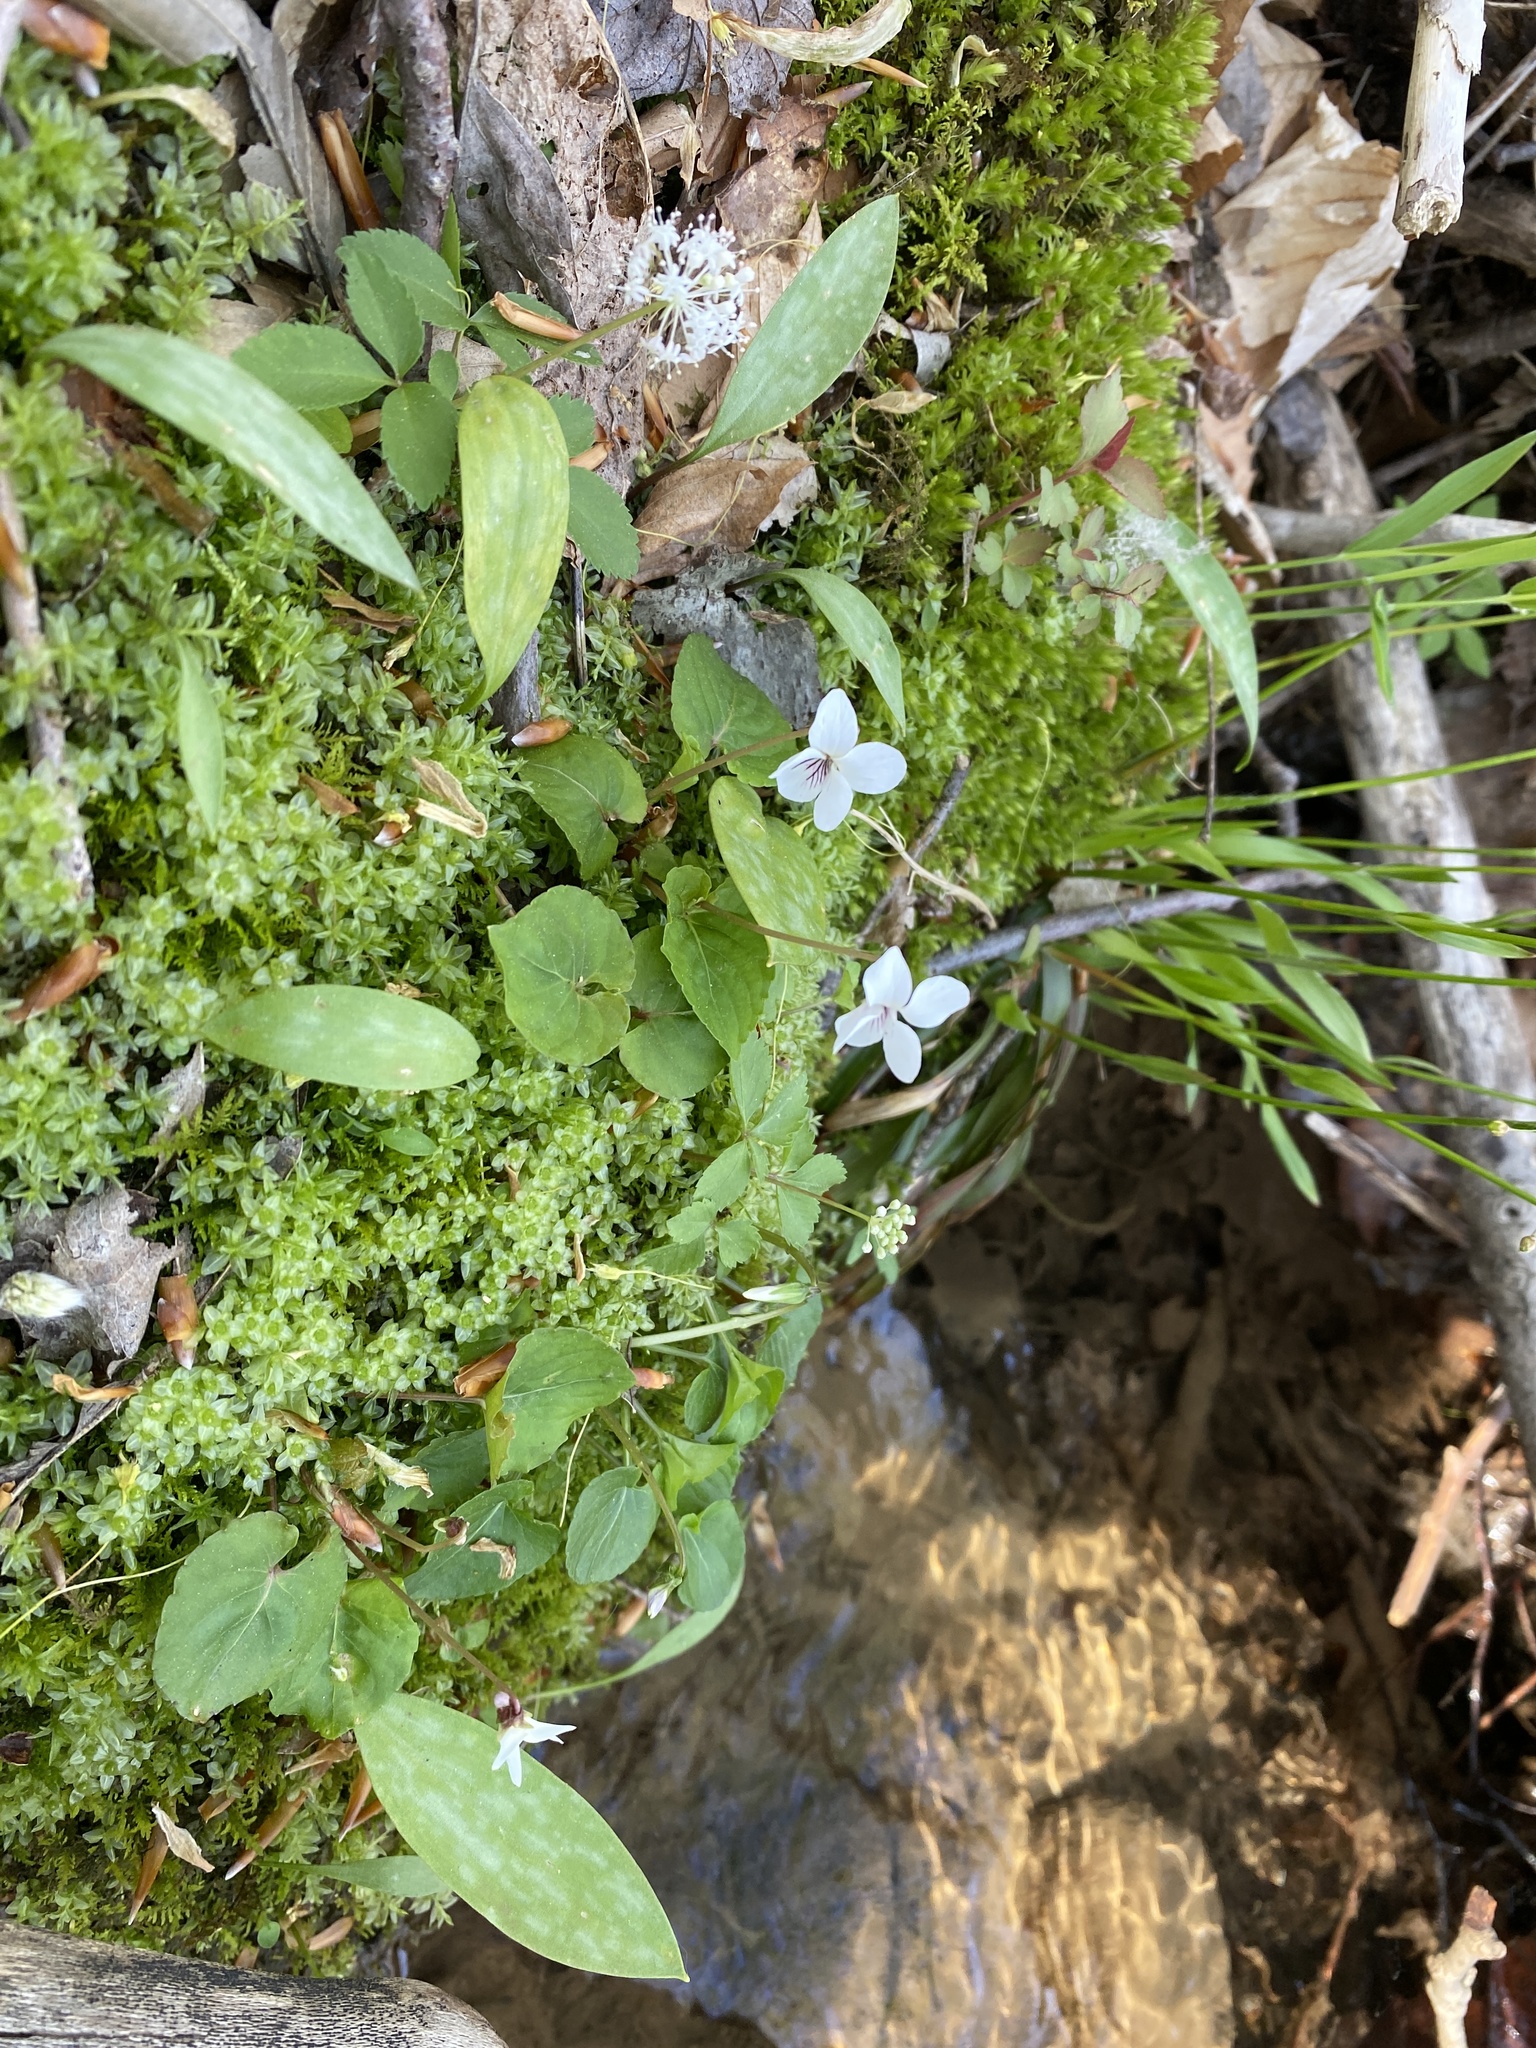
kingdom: Plantae
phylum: Tracheophyta
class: Magnoliopsida
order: Malpighiales
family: Violaceae
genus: Viola
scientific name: Viola minuscula
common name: Northern white violet
